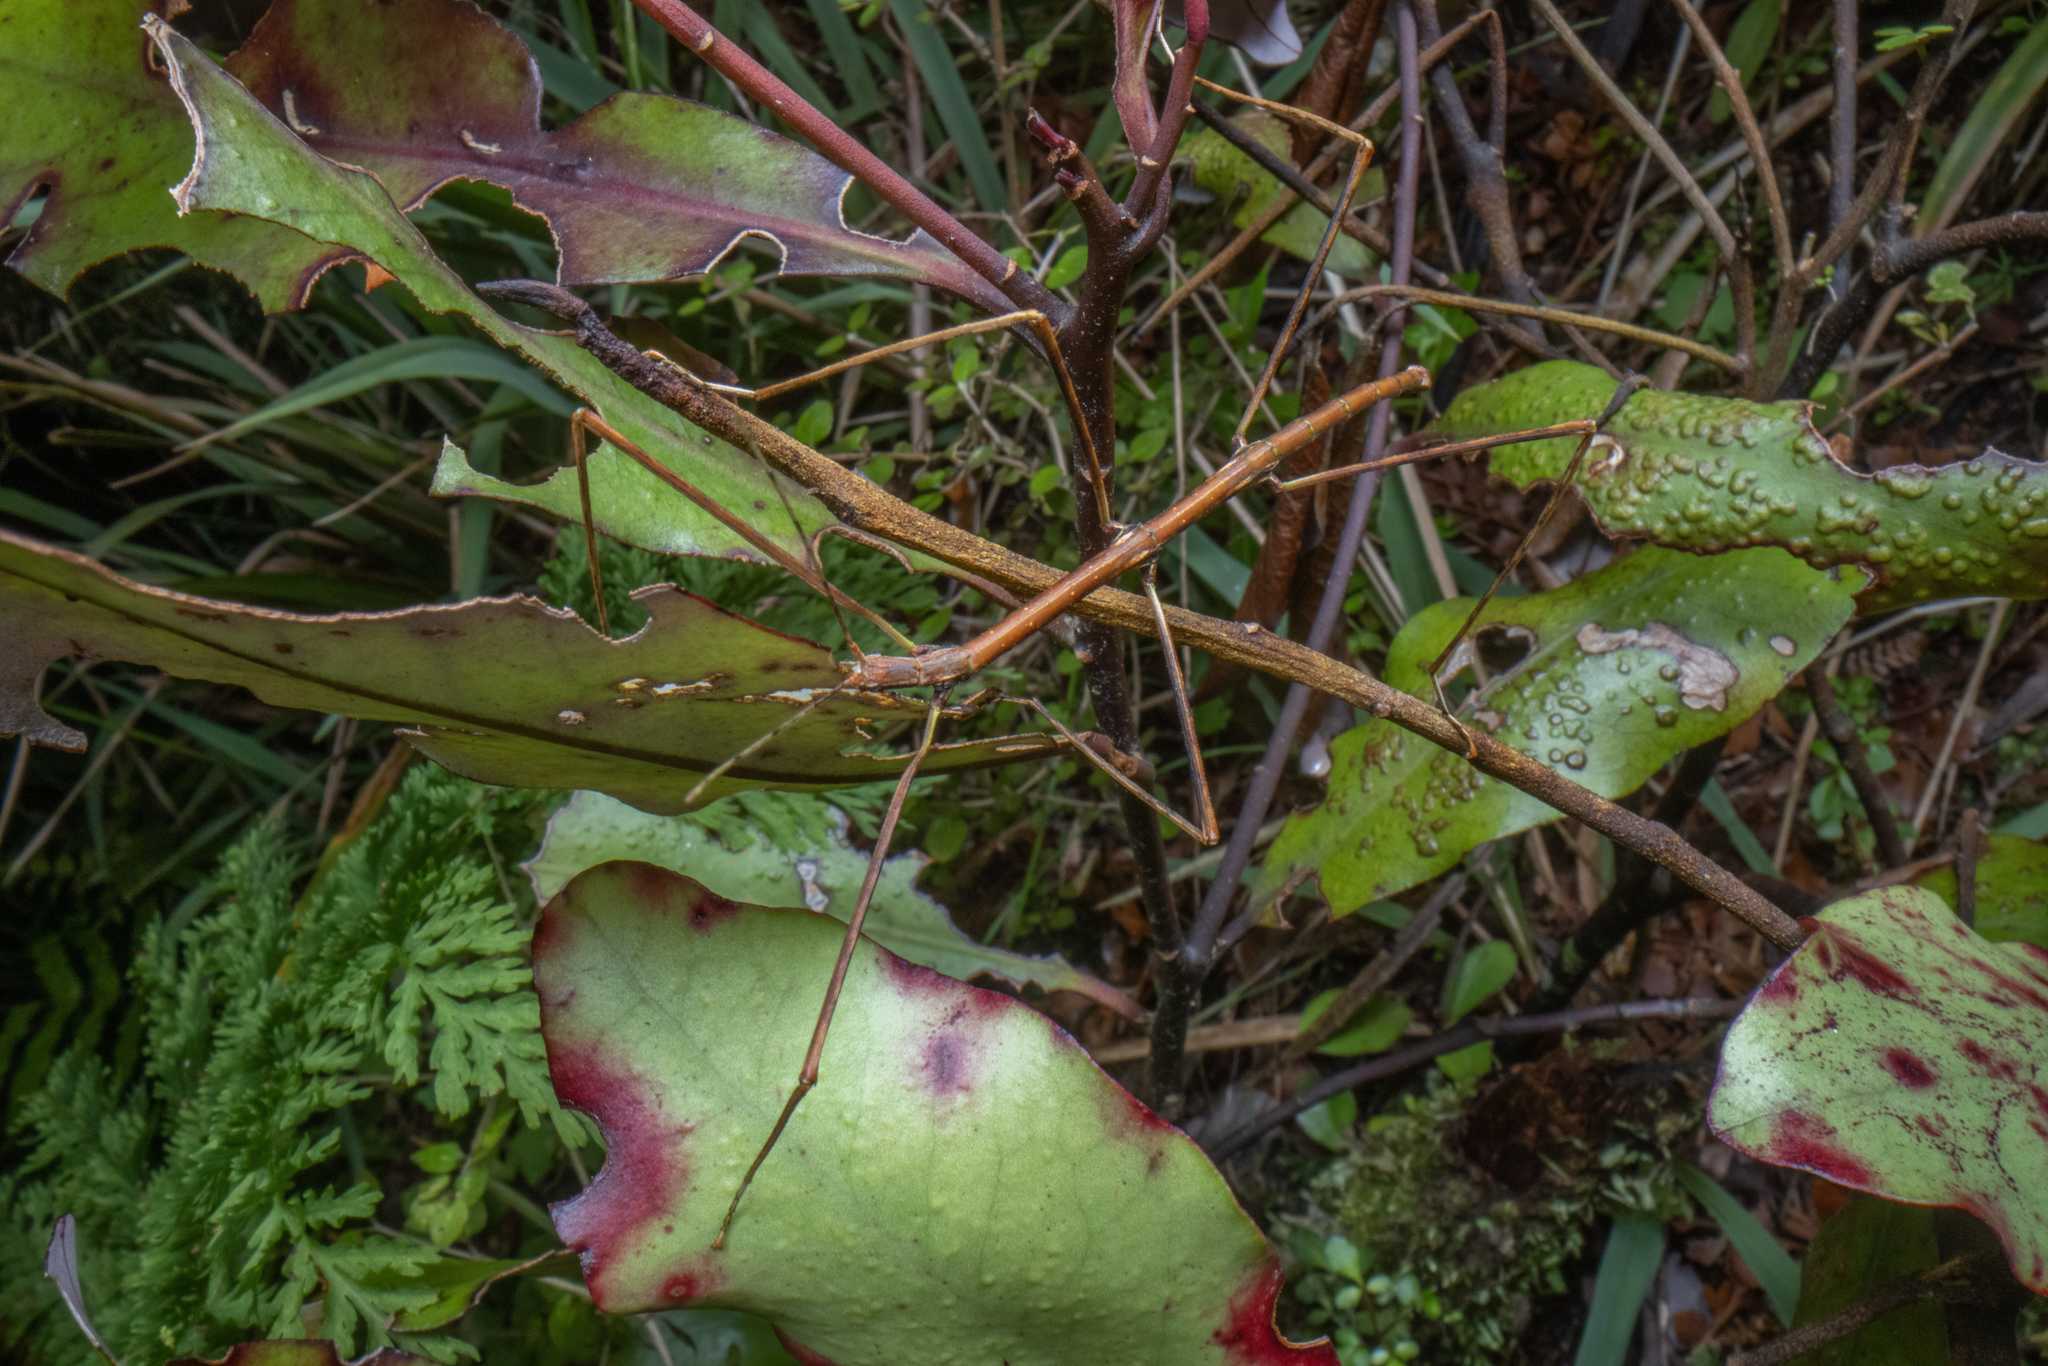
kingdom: Animalia
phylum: Arthropoda
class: Insecta
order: Phasmida
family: Phasmatidae
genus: Clitarchus
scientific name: Clitarchus hookeri
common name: Smooth stick insect
